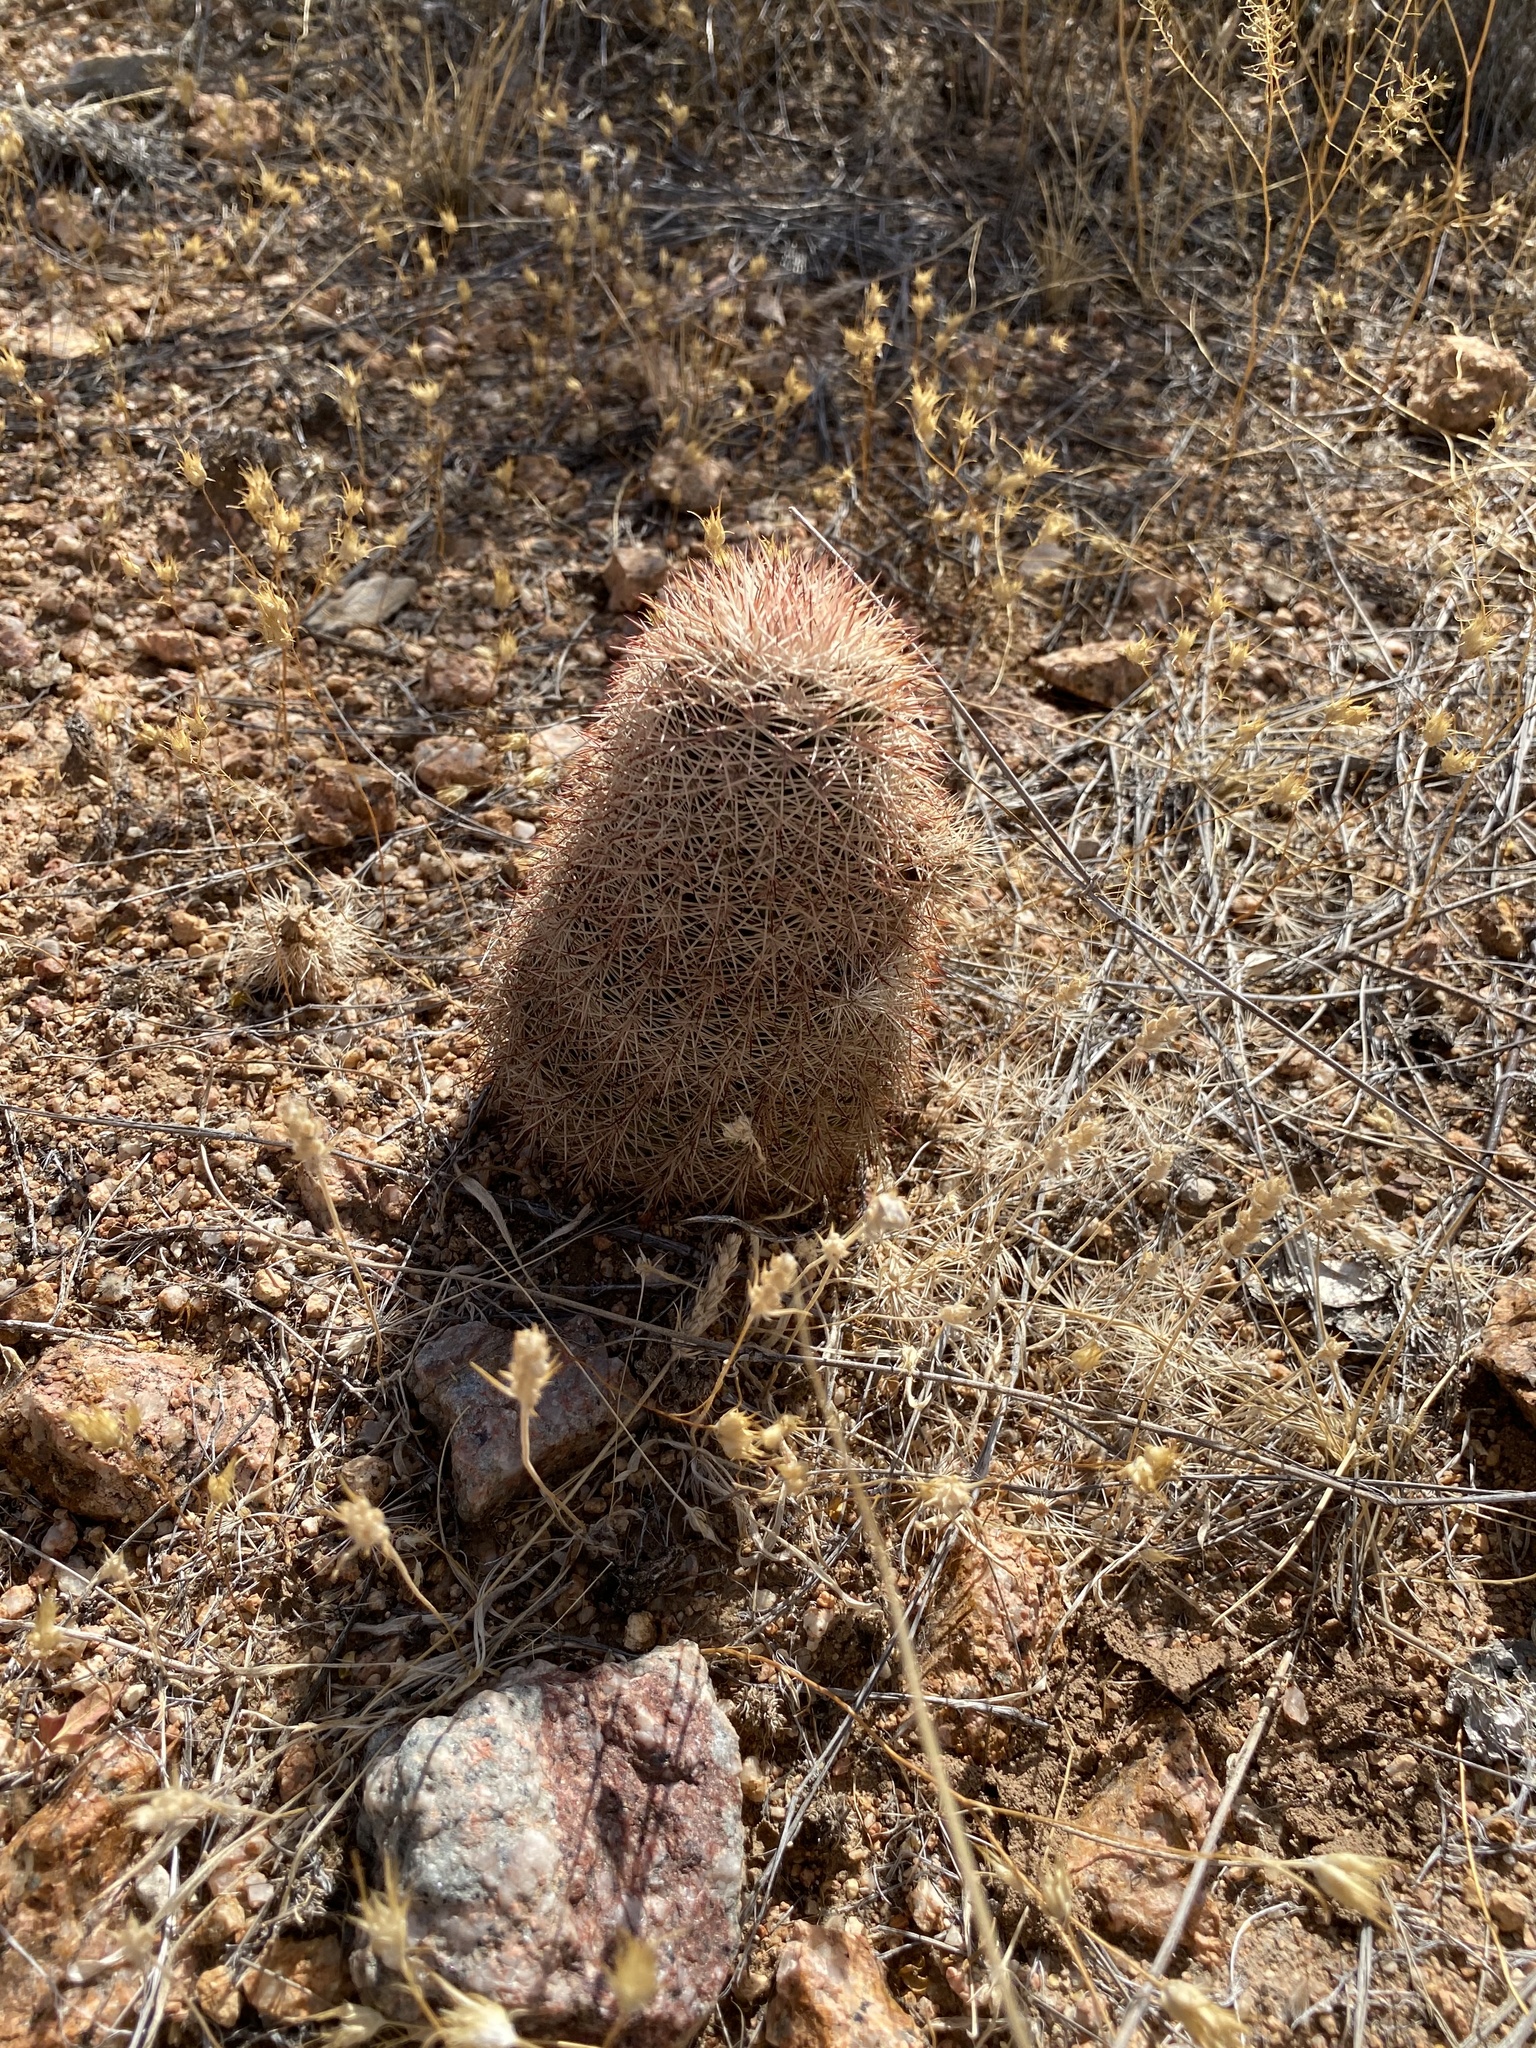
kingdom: Plantae
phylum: Tracheophyta
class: Magnoliopsida
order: Caryophyllales
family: Cactaceae
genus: Echinocereus
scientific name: Echinocereus dasyacanthus
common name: Spiny hedgehog cactus
